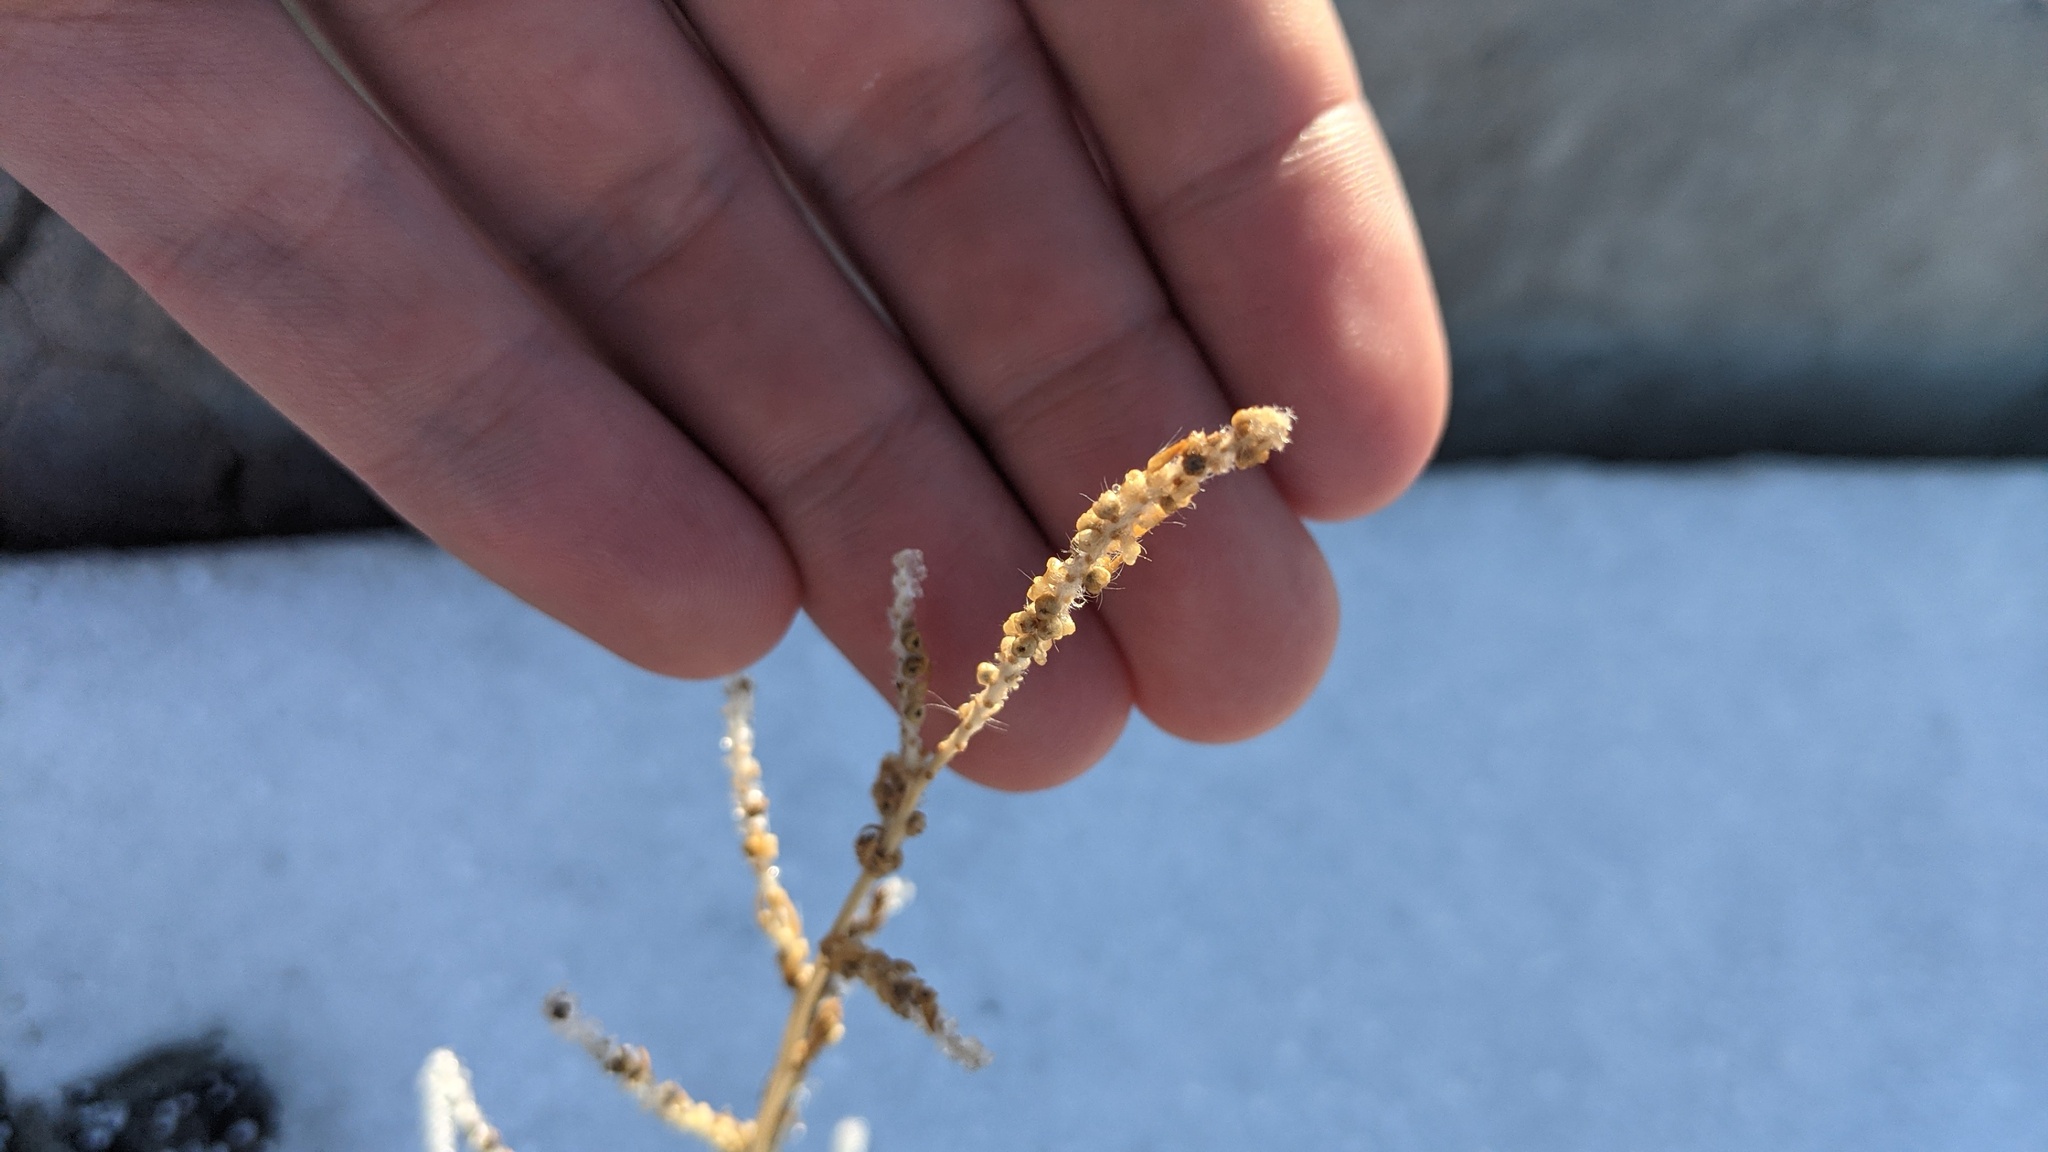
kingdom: Plantae
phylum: Tracheophyta
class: Magnoliopsida
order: Caryophyllales
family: Amaranthaceae
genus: Bassia
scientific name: Bassia scoparia
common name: Belvedere
